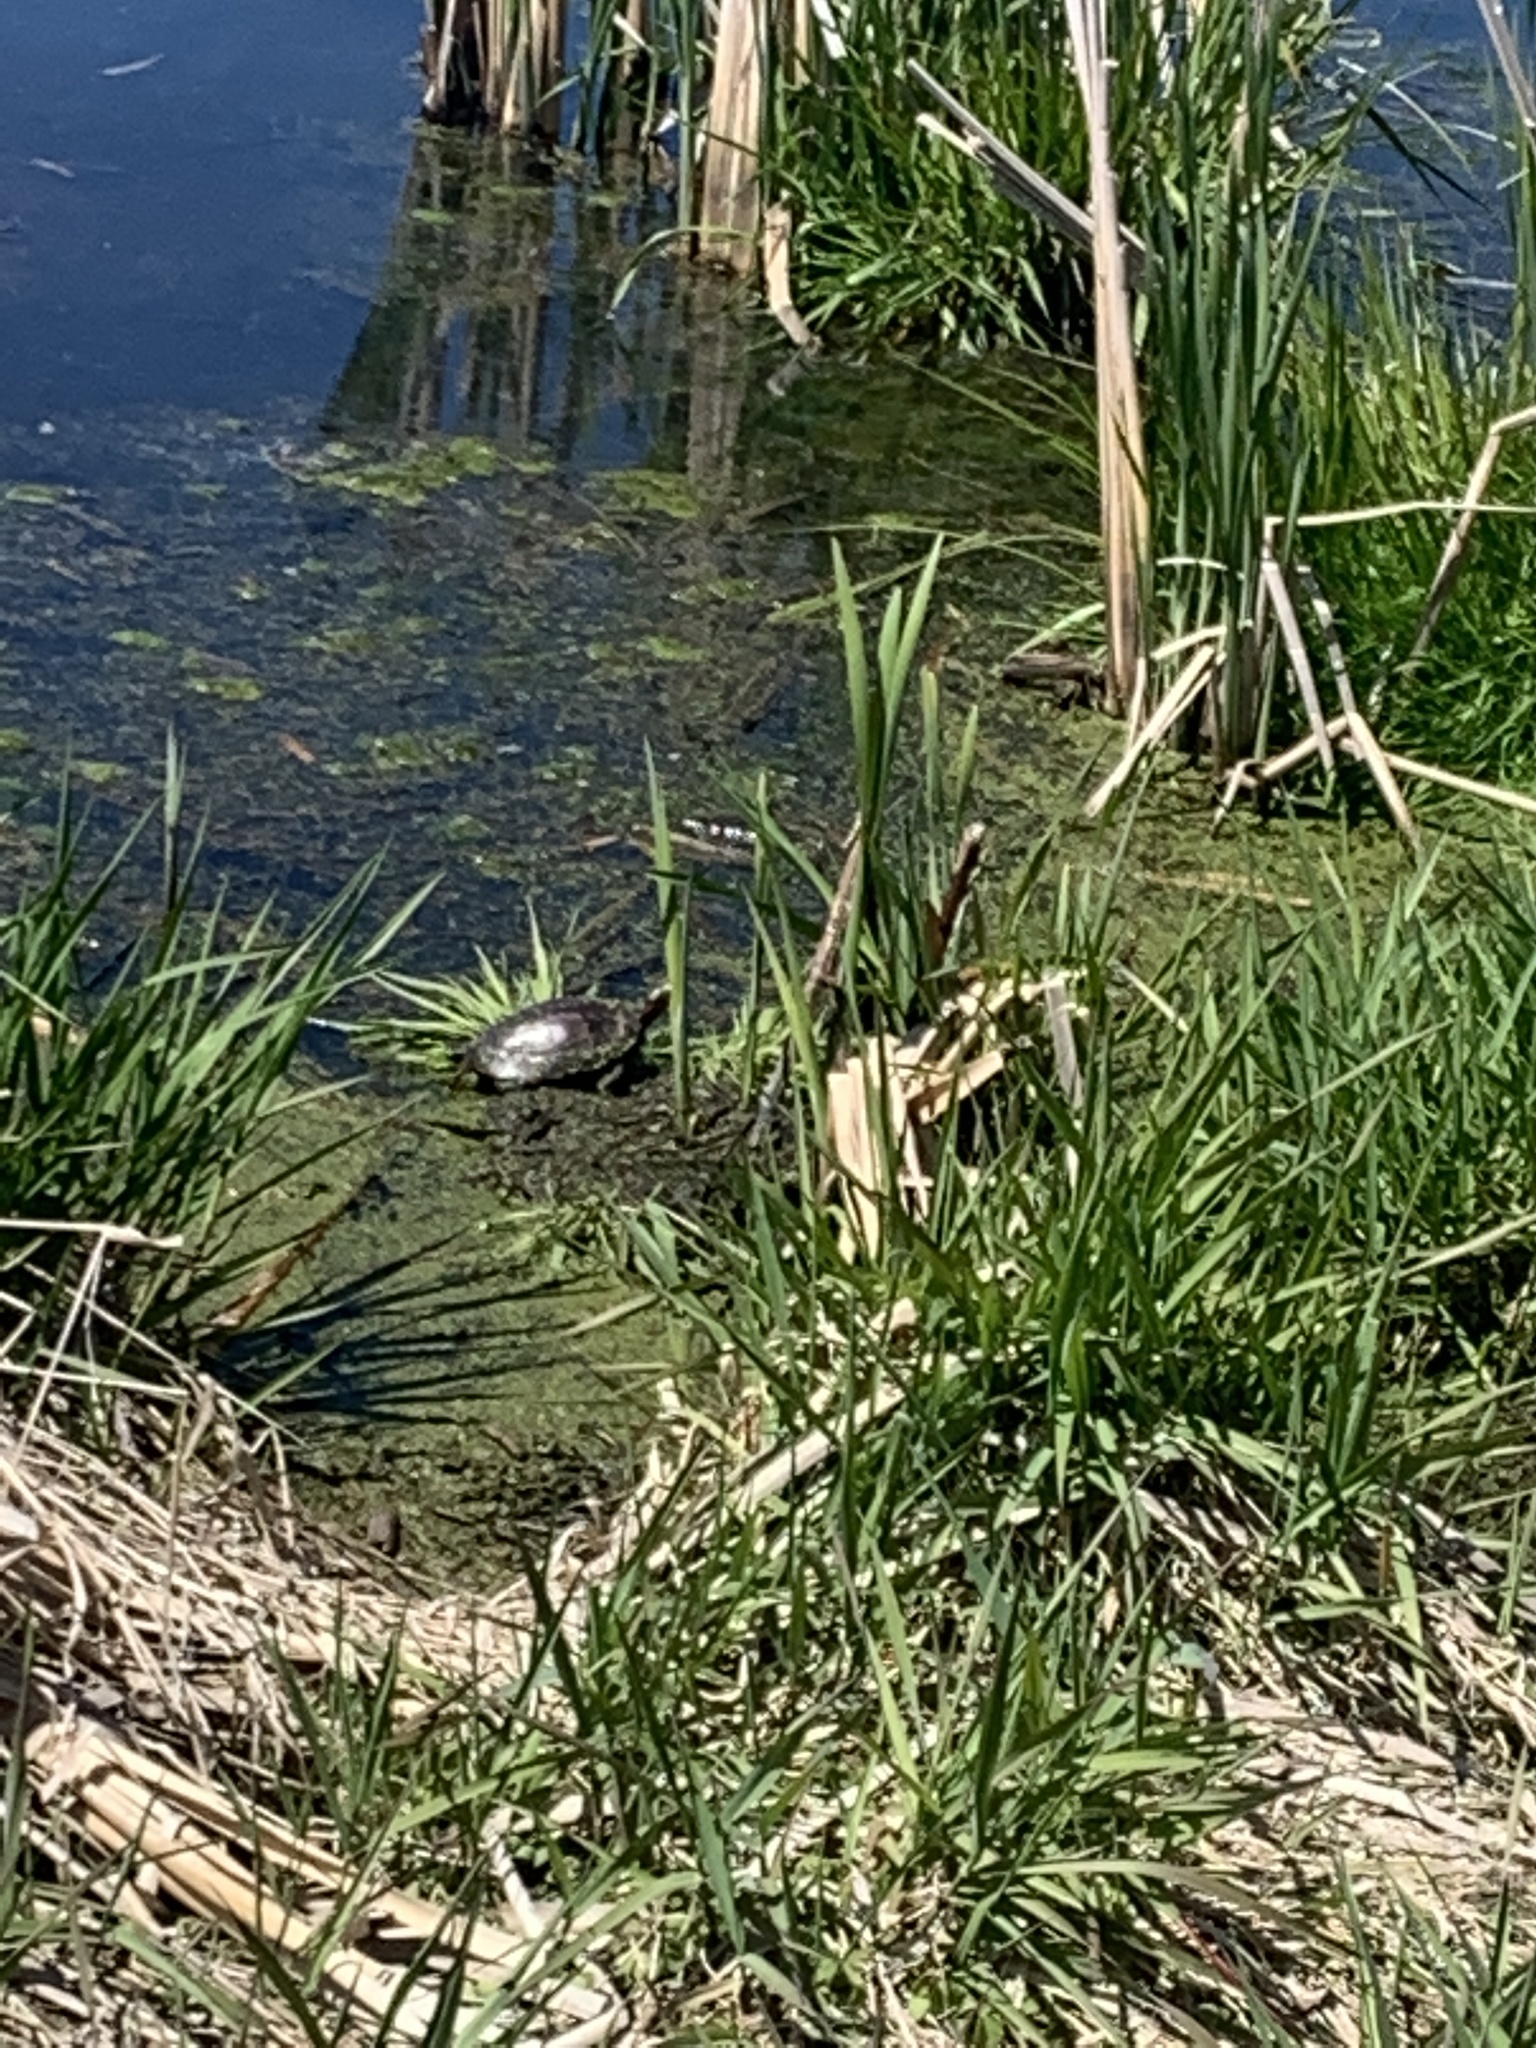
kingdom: Animalia
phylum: Chordata
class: Testudines
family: Emydidae
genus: Chrysemys
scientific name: Chrysemys picta
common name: Painted turtle
